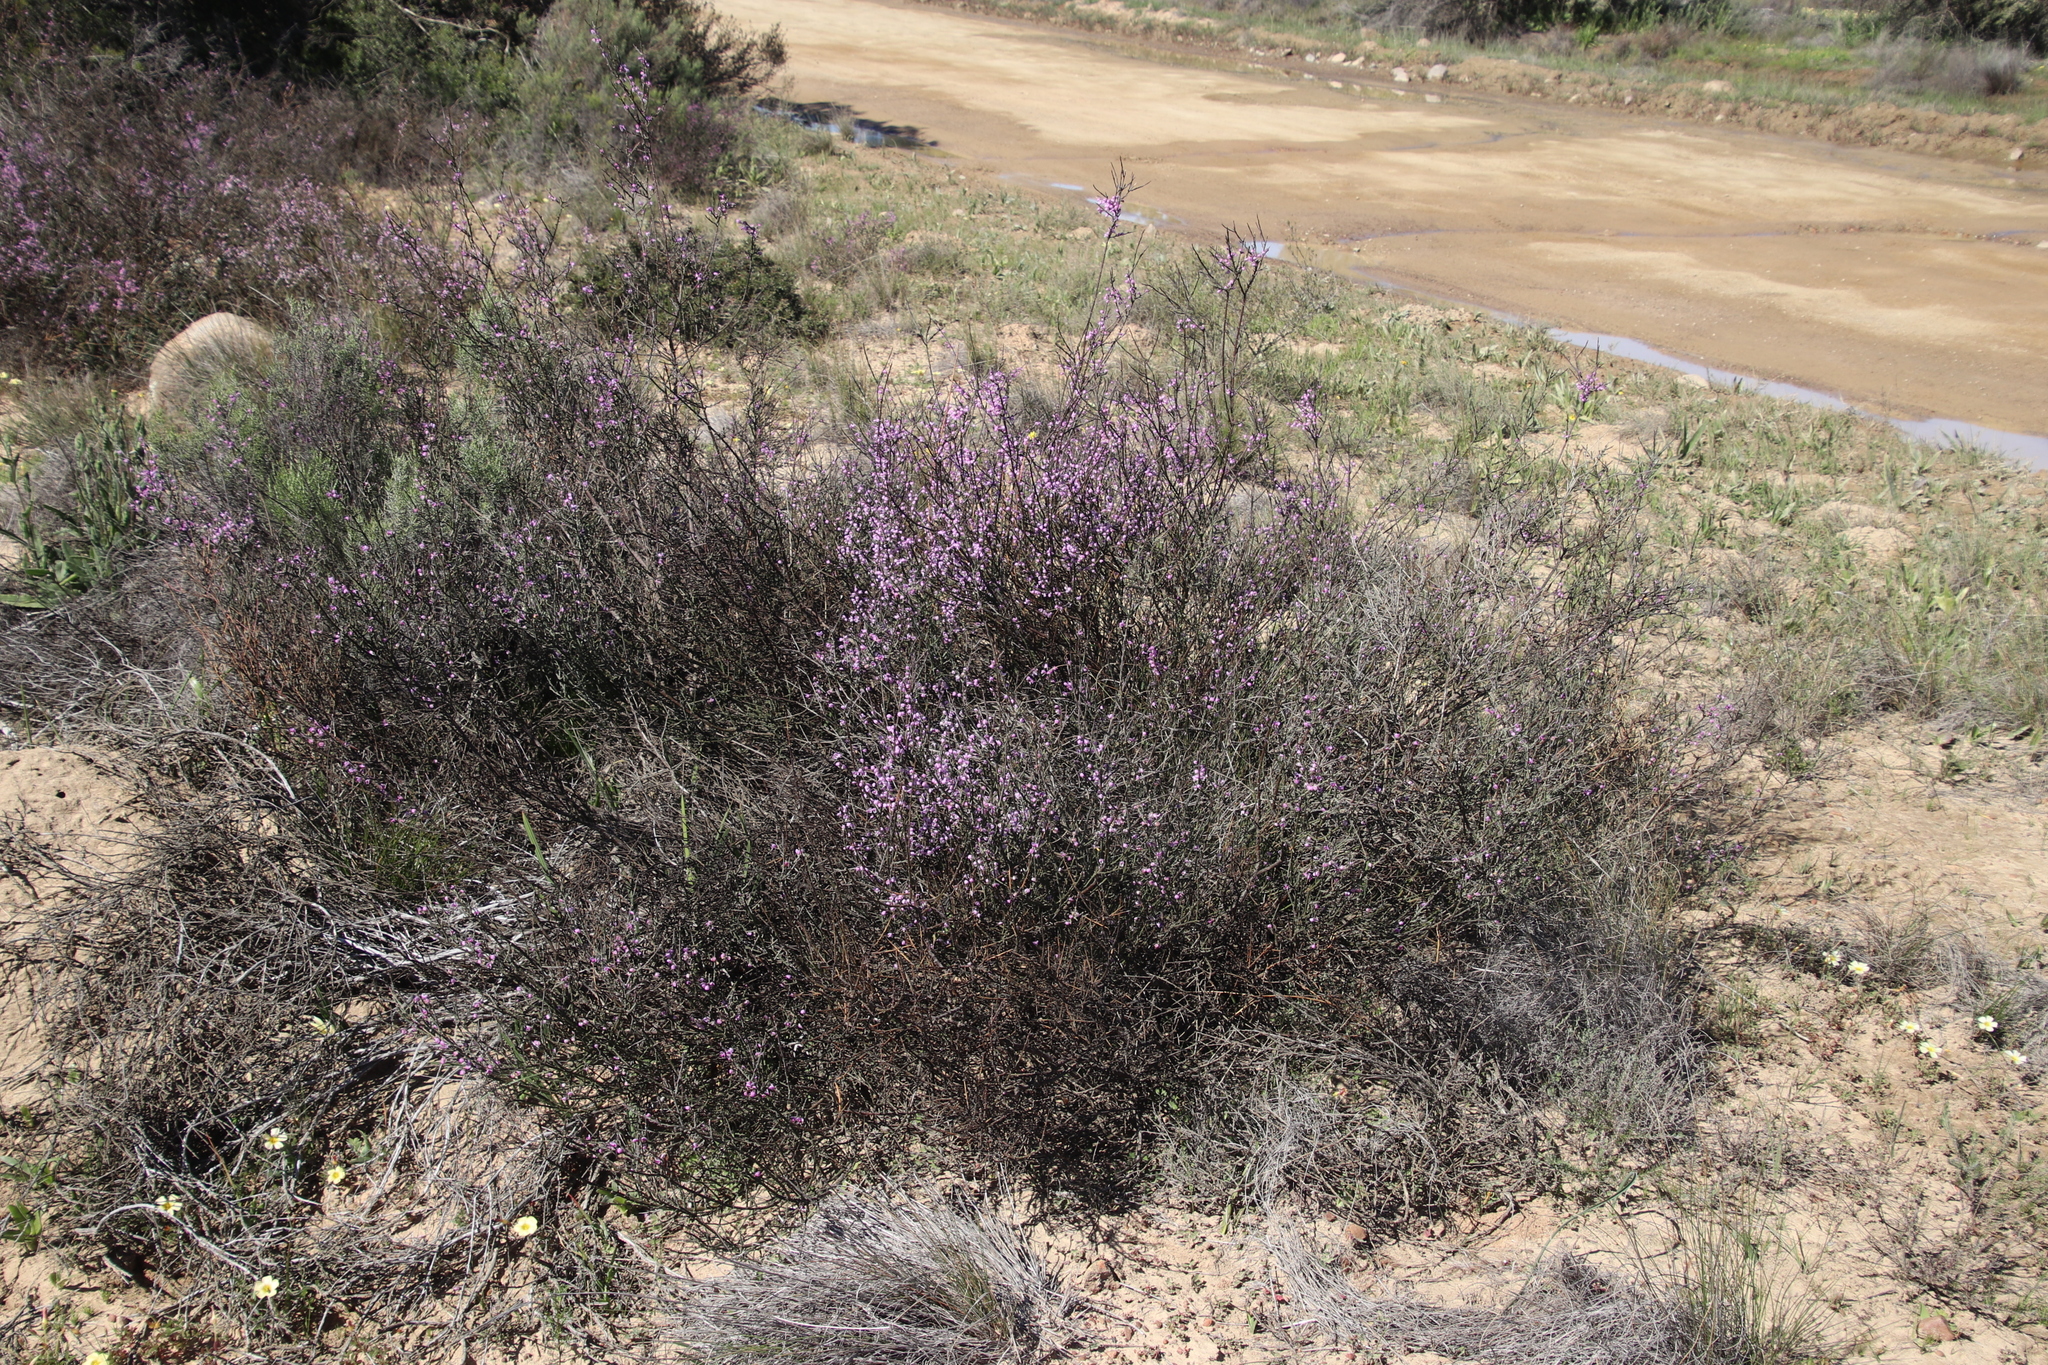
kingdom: Plantae
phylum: Tracheophyta
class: Magnoliopsida
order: Fabales
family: Polygalaceae
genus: Muraltia
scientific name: Muraltia spinosa
